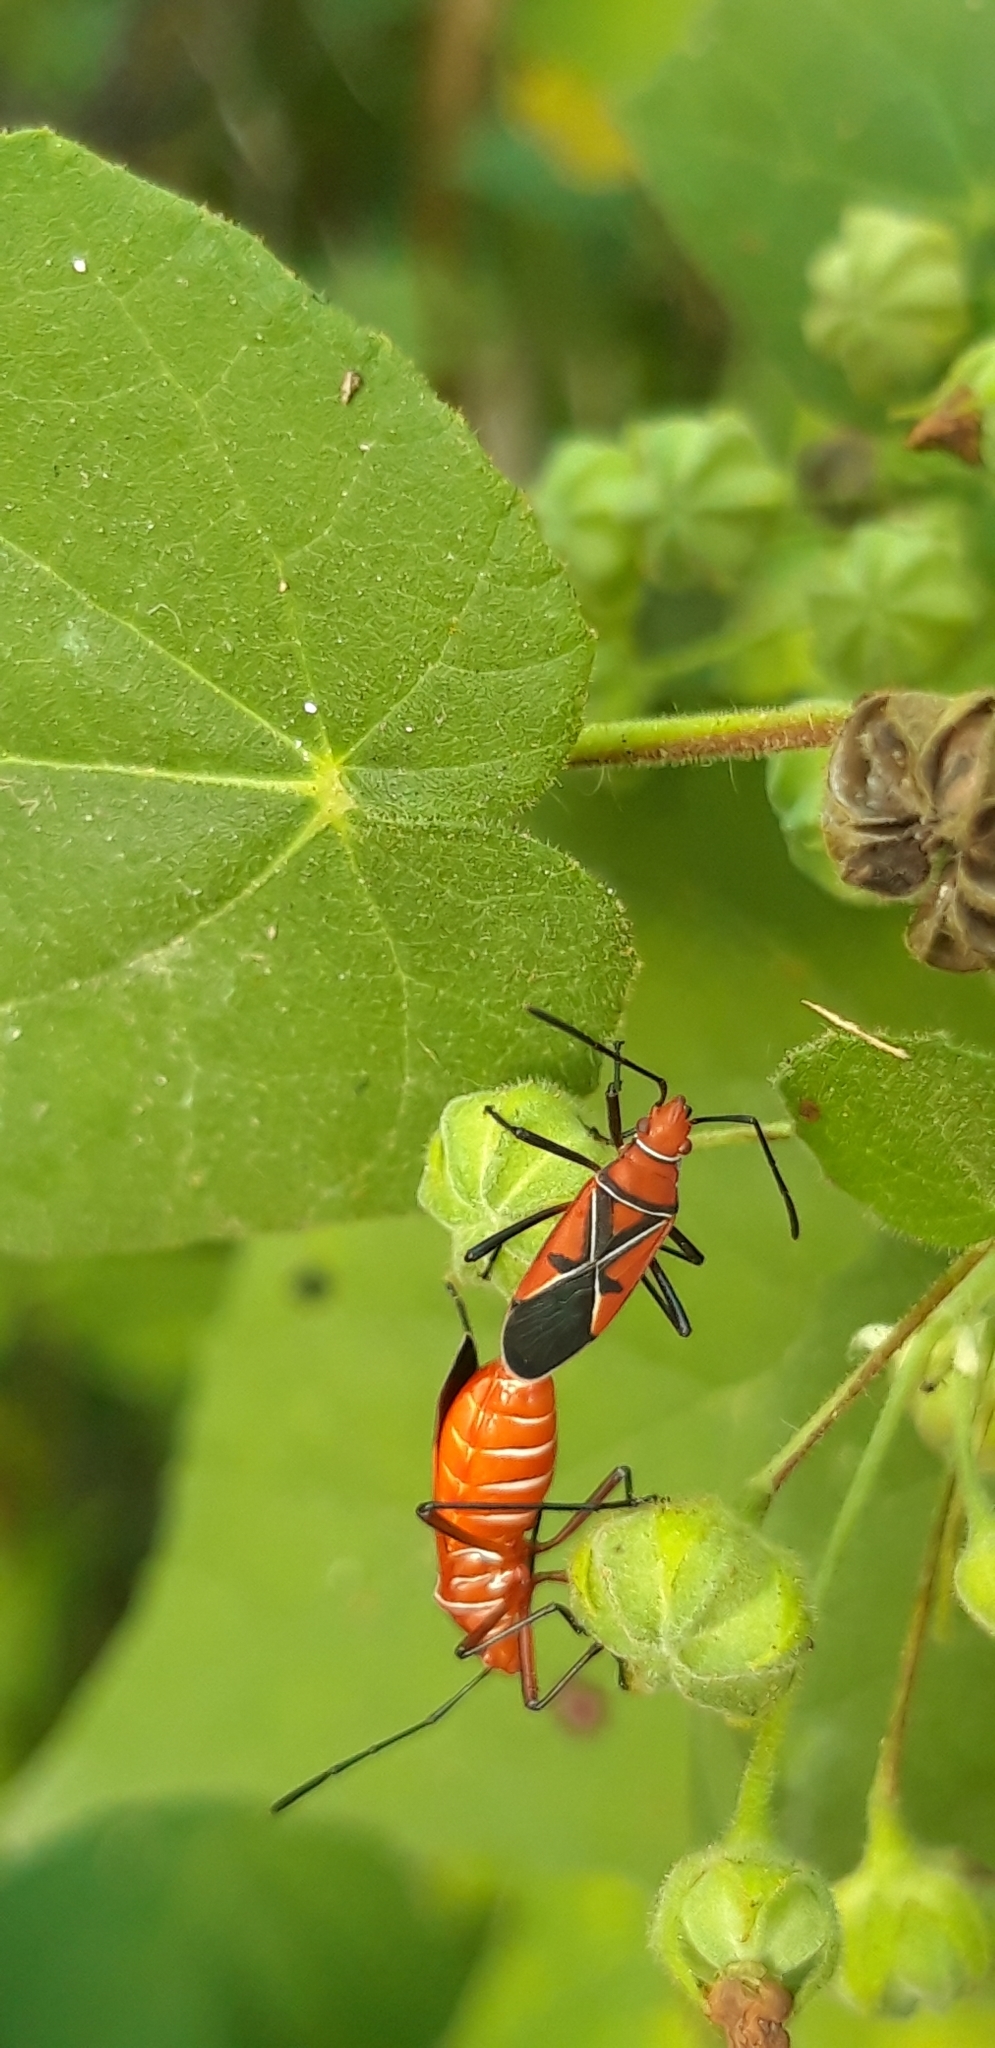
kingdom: Animalia
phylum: Arthropoda
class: Insecta
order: Hemiptera
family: Pyrrhocoridae
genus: Dysdercus
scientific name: Dysdercus andreae
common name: St. andrew's cotton stainer
